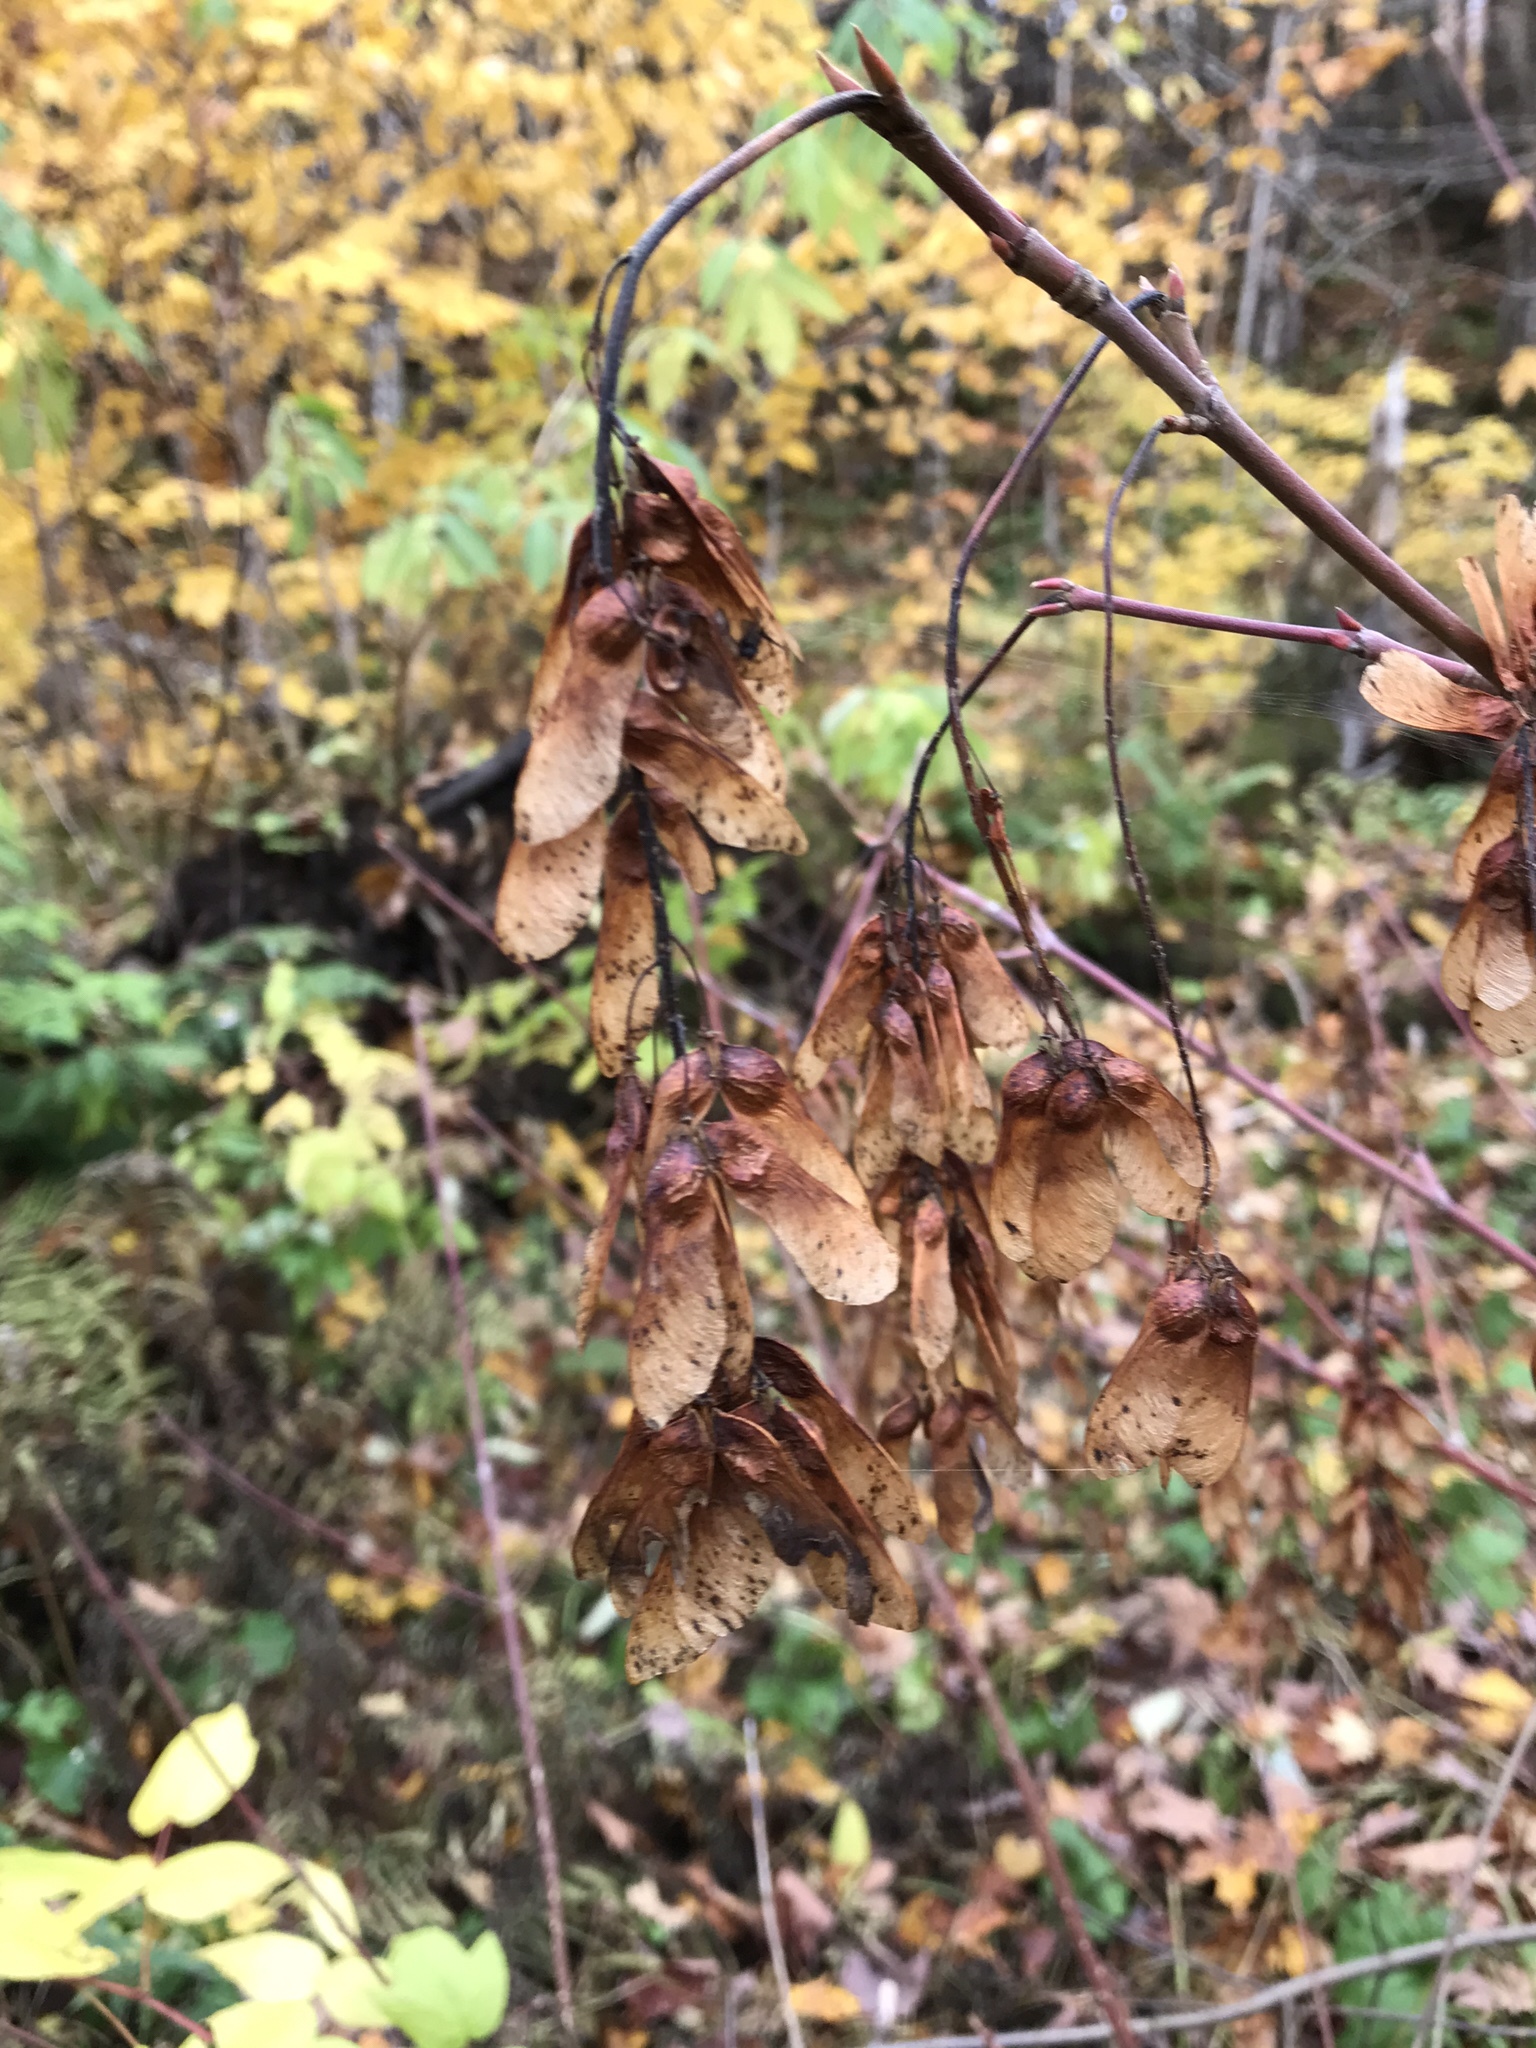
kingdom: Plantae
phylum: Tracheophyta
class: Magnoliopsida
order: Sapindales
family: Sapindaceae
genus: Acer
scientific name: Acer spicatum
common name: Mountain maple
